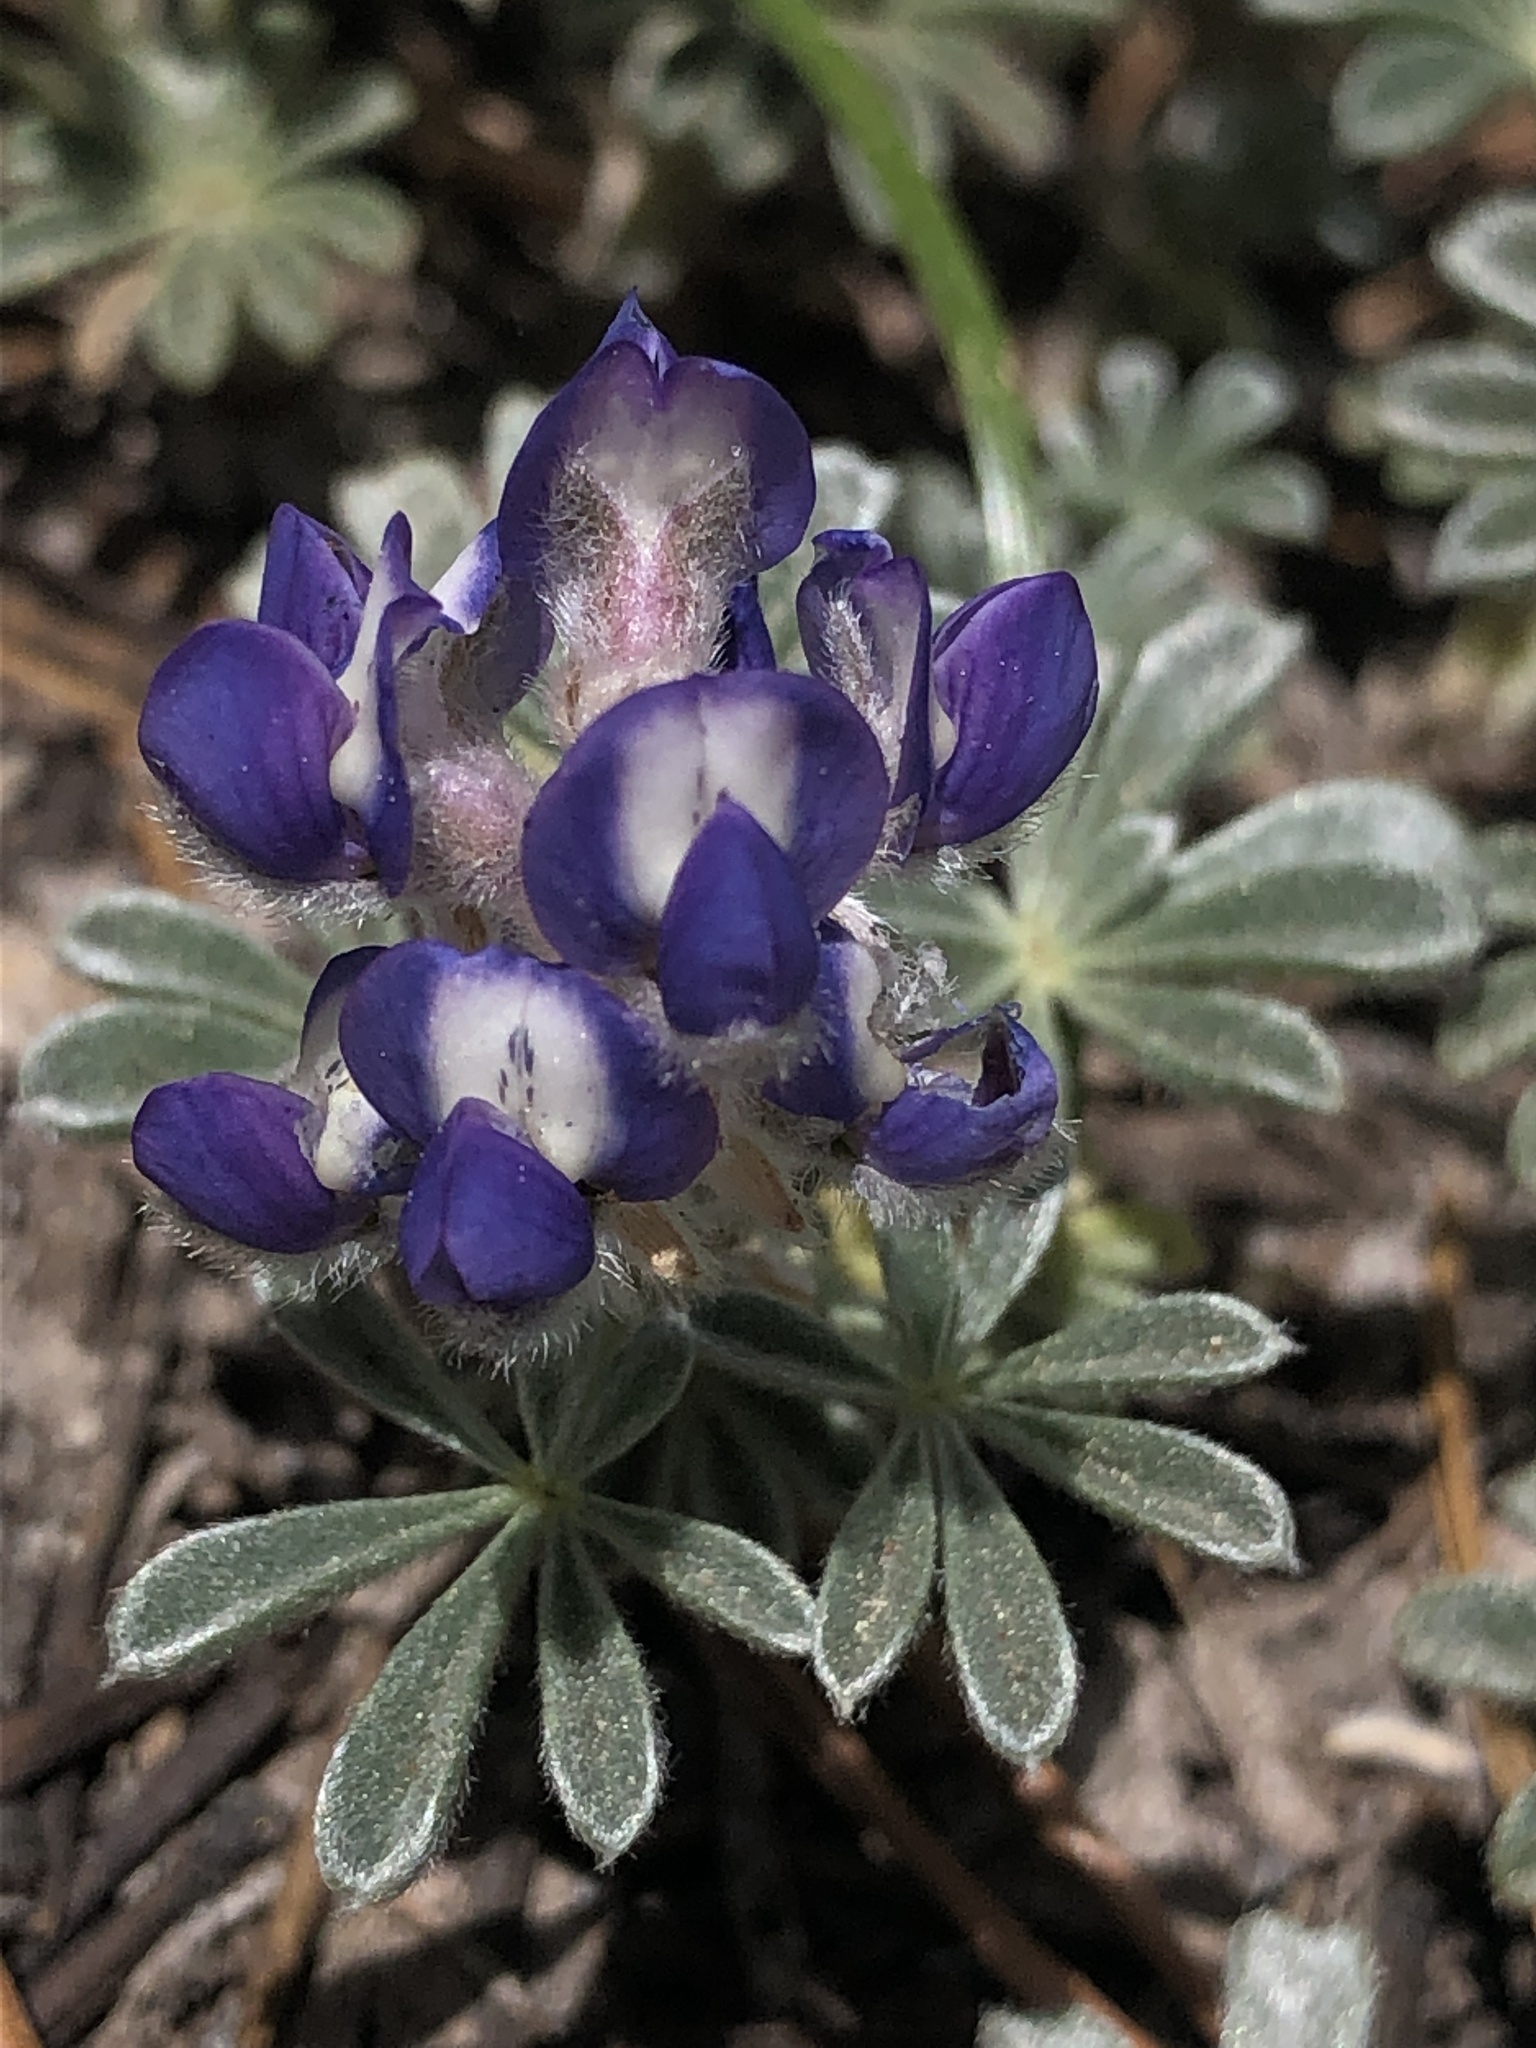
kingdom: Plantae
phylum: Tracheophyta
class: Magnoliopsida
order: Fabales
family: Fabaceae
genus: Lupinus
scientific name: Lupinus breweri
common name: Brewer's lupine
